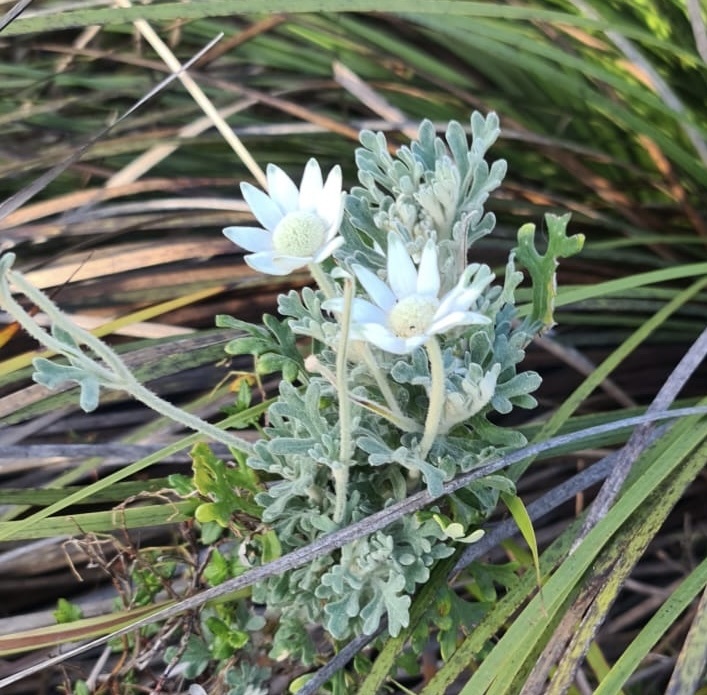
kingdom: Plantae
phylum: Tracheophyta
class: Magnoliopsida
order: Apiales
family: Apiaceae
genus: Actinotus
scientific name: Actinotus helianthi
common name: Flannel-flower
